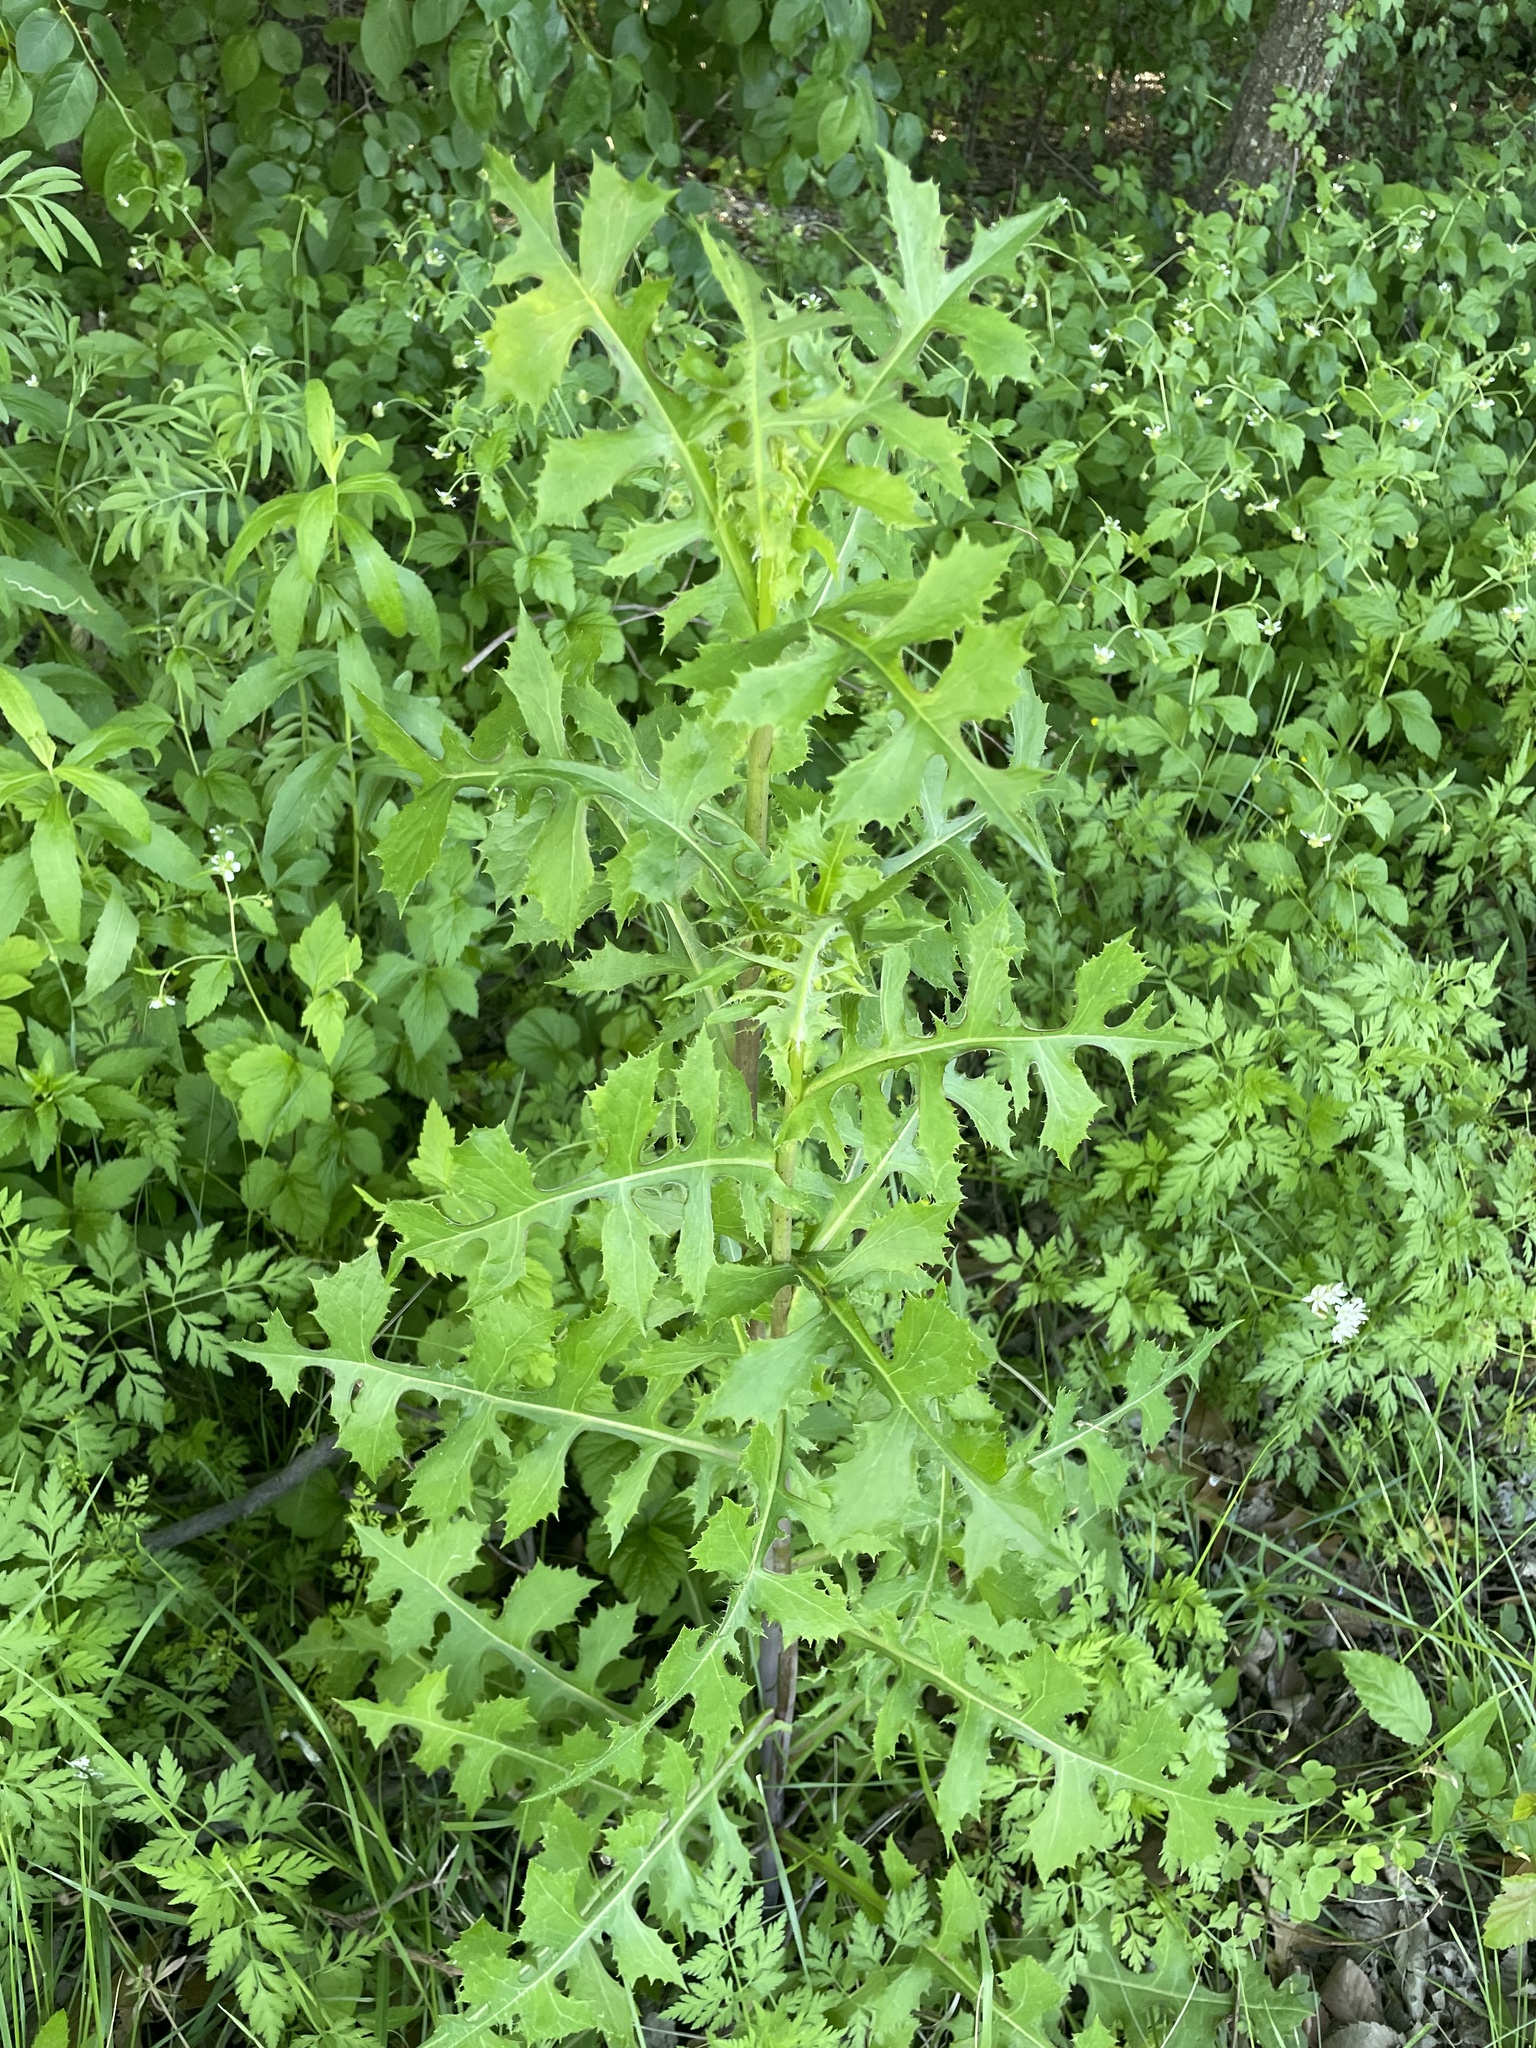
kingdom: Plantae
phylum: Tracheophyta
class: Magnoliopsida
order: Asterales
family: Asteraceae
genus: Lactuca
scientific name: Lactuca ludoviciana
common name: Louisiana lettuce
